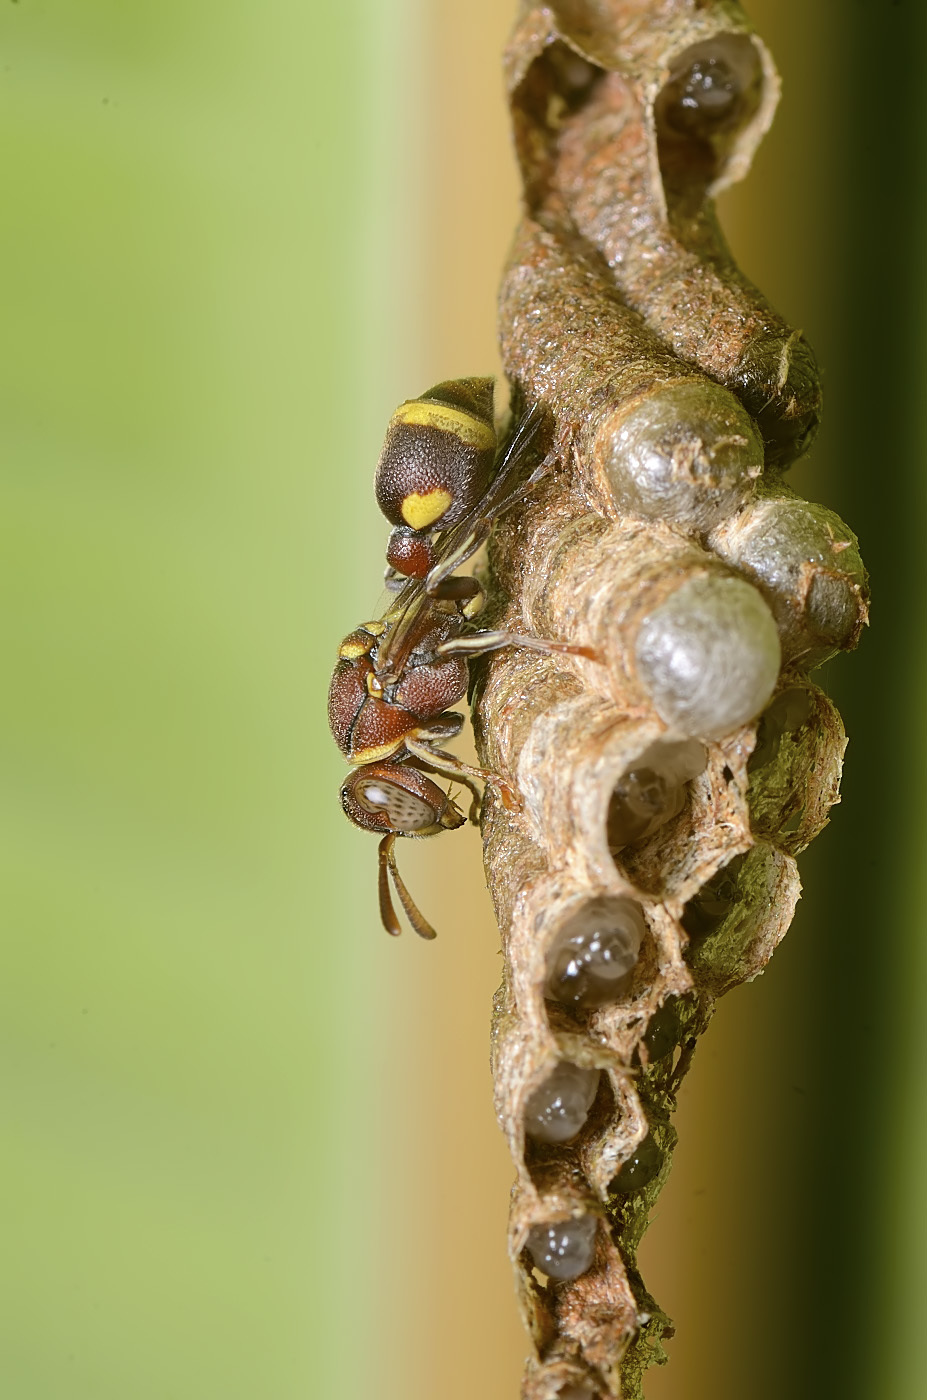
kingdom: Animalia
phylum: Arthropoda
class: Insecta
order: Hymenoptera
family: Vespidae
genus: Ropalidia
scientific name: Ropalidia jacobsoni
